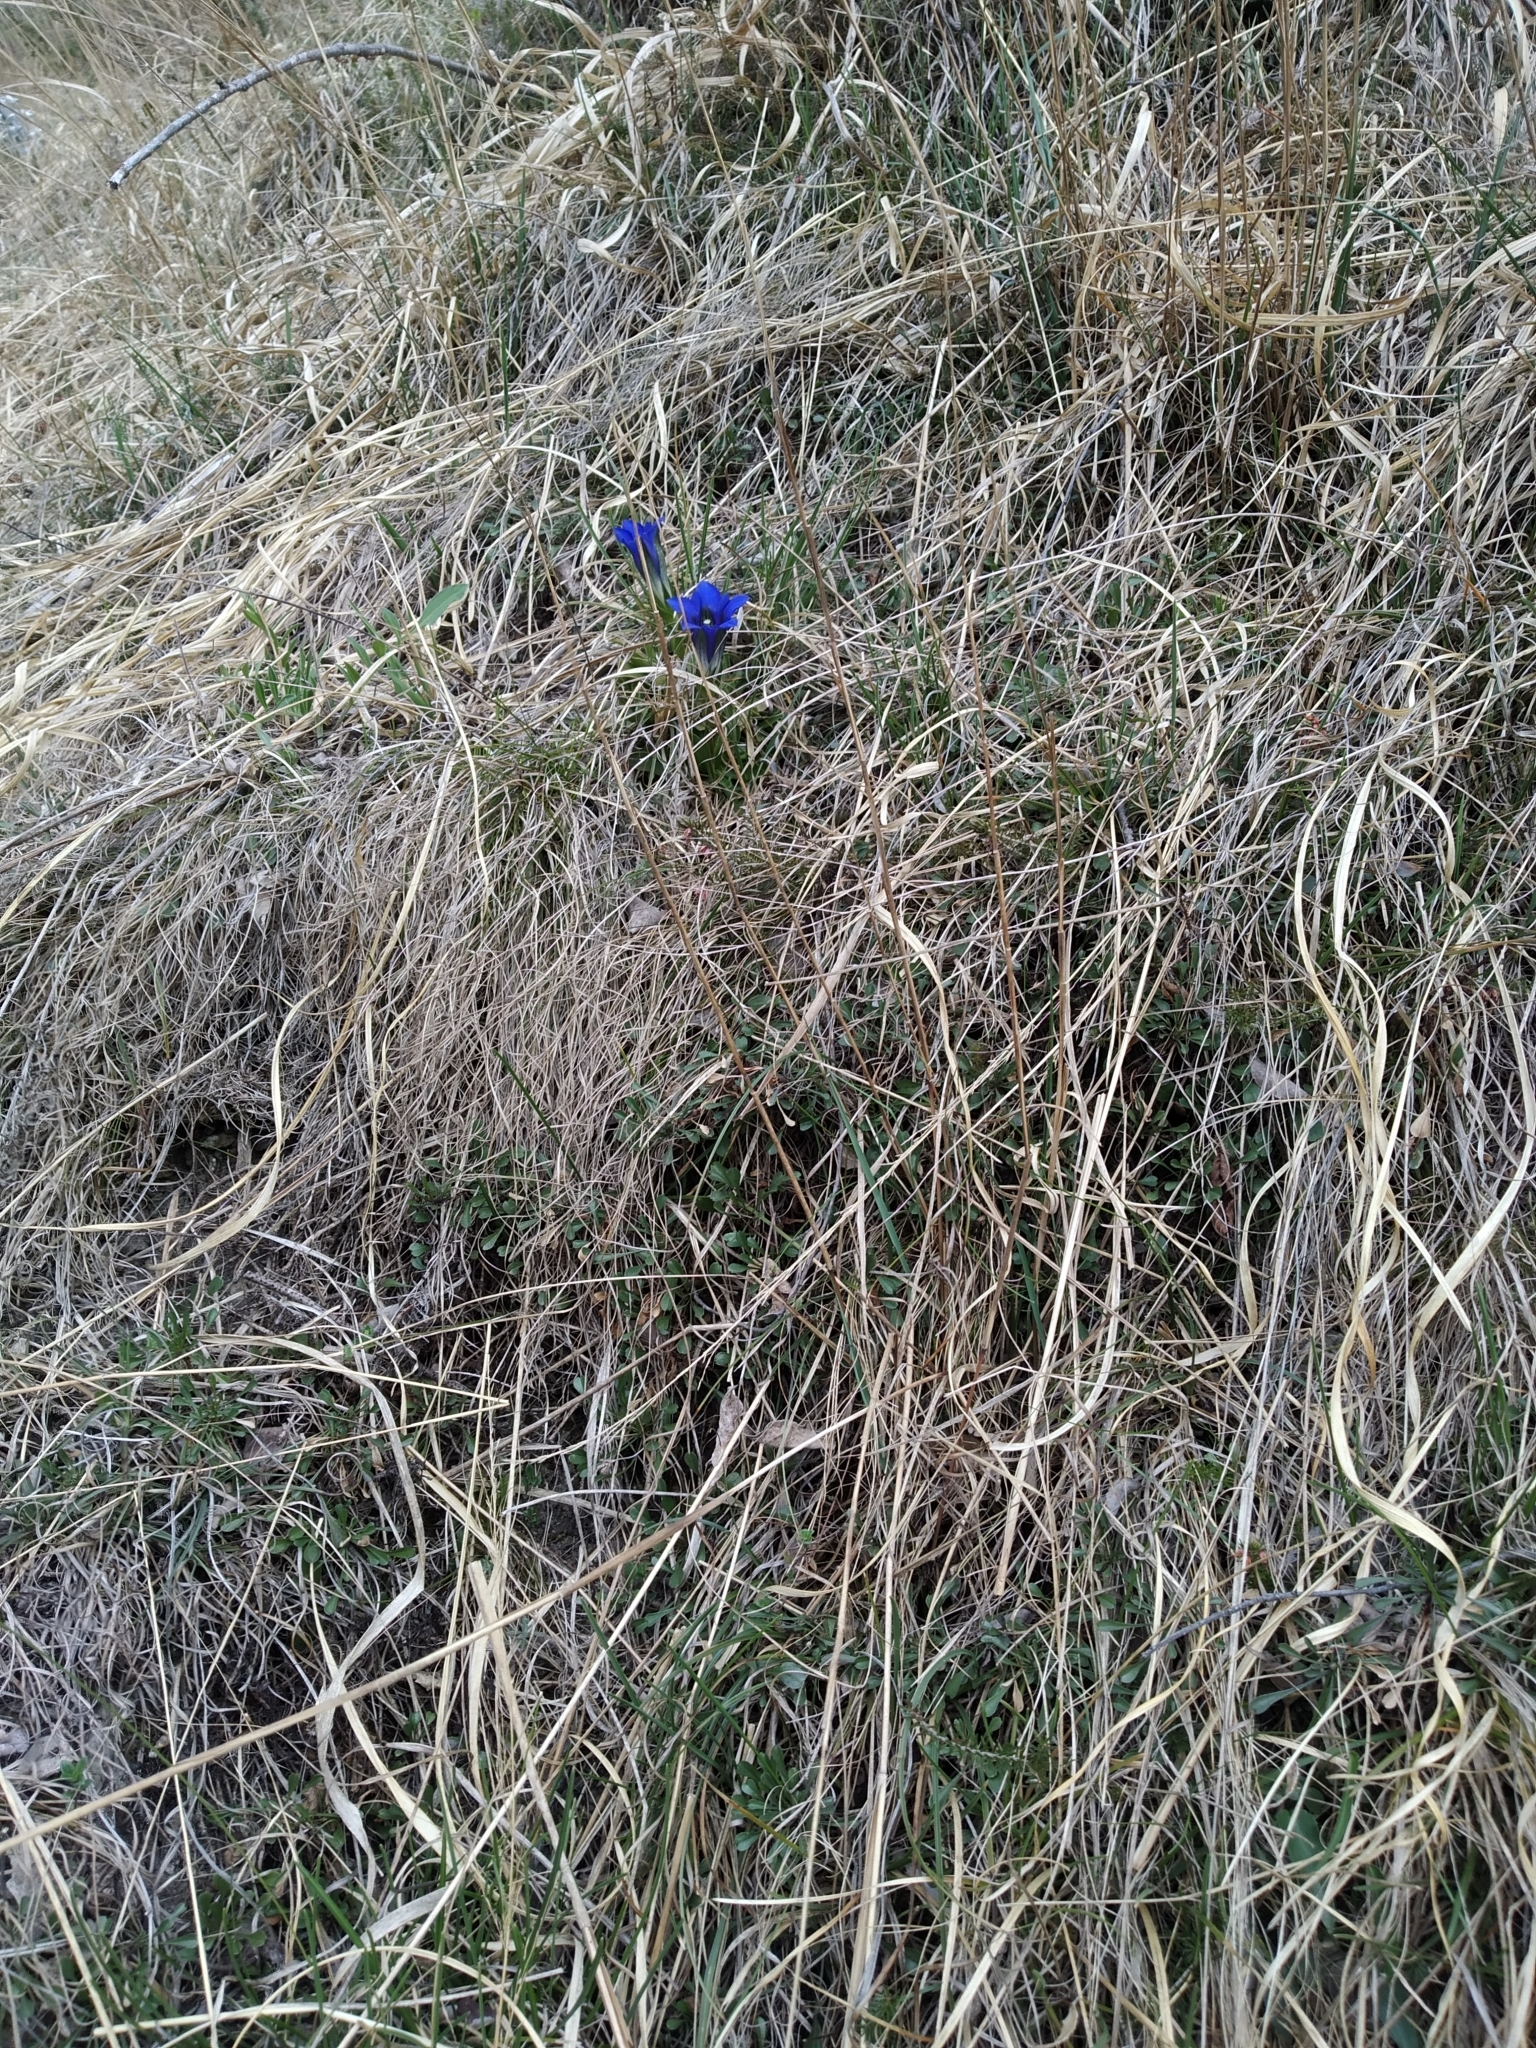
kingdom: Plantae
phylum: Tracheophyta
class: Magnoliopsida
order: Gentianales
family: Gentianaceae
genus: Gentiana
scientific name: Gentiana clusii
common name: Trumpet gentian
